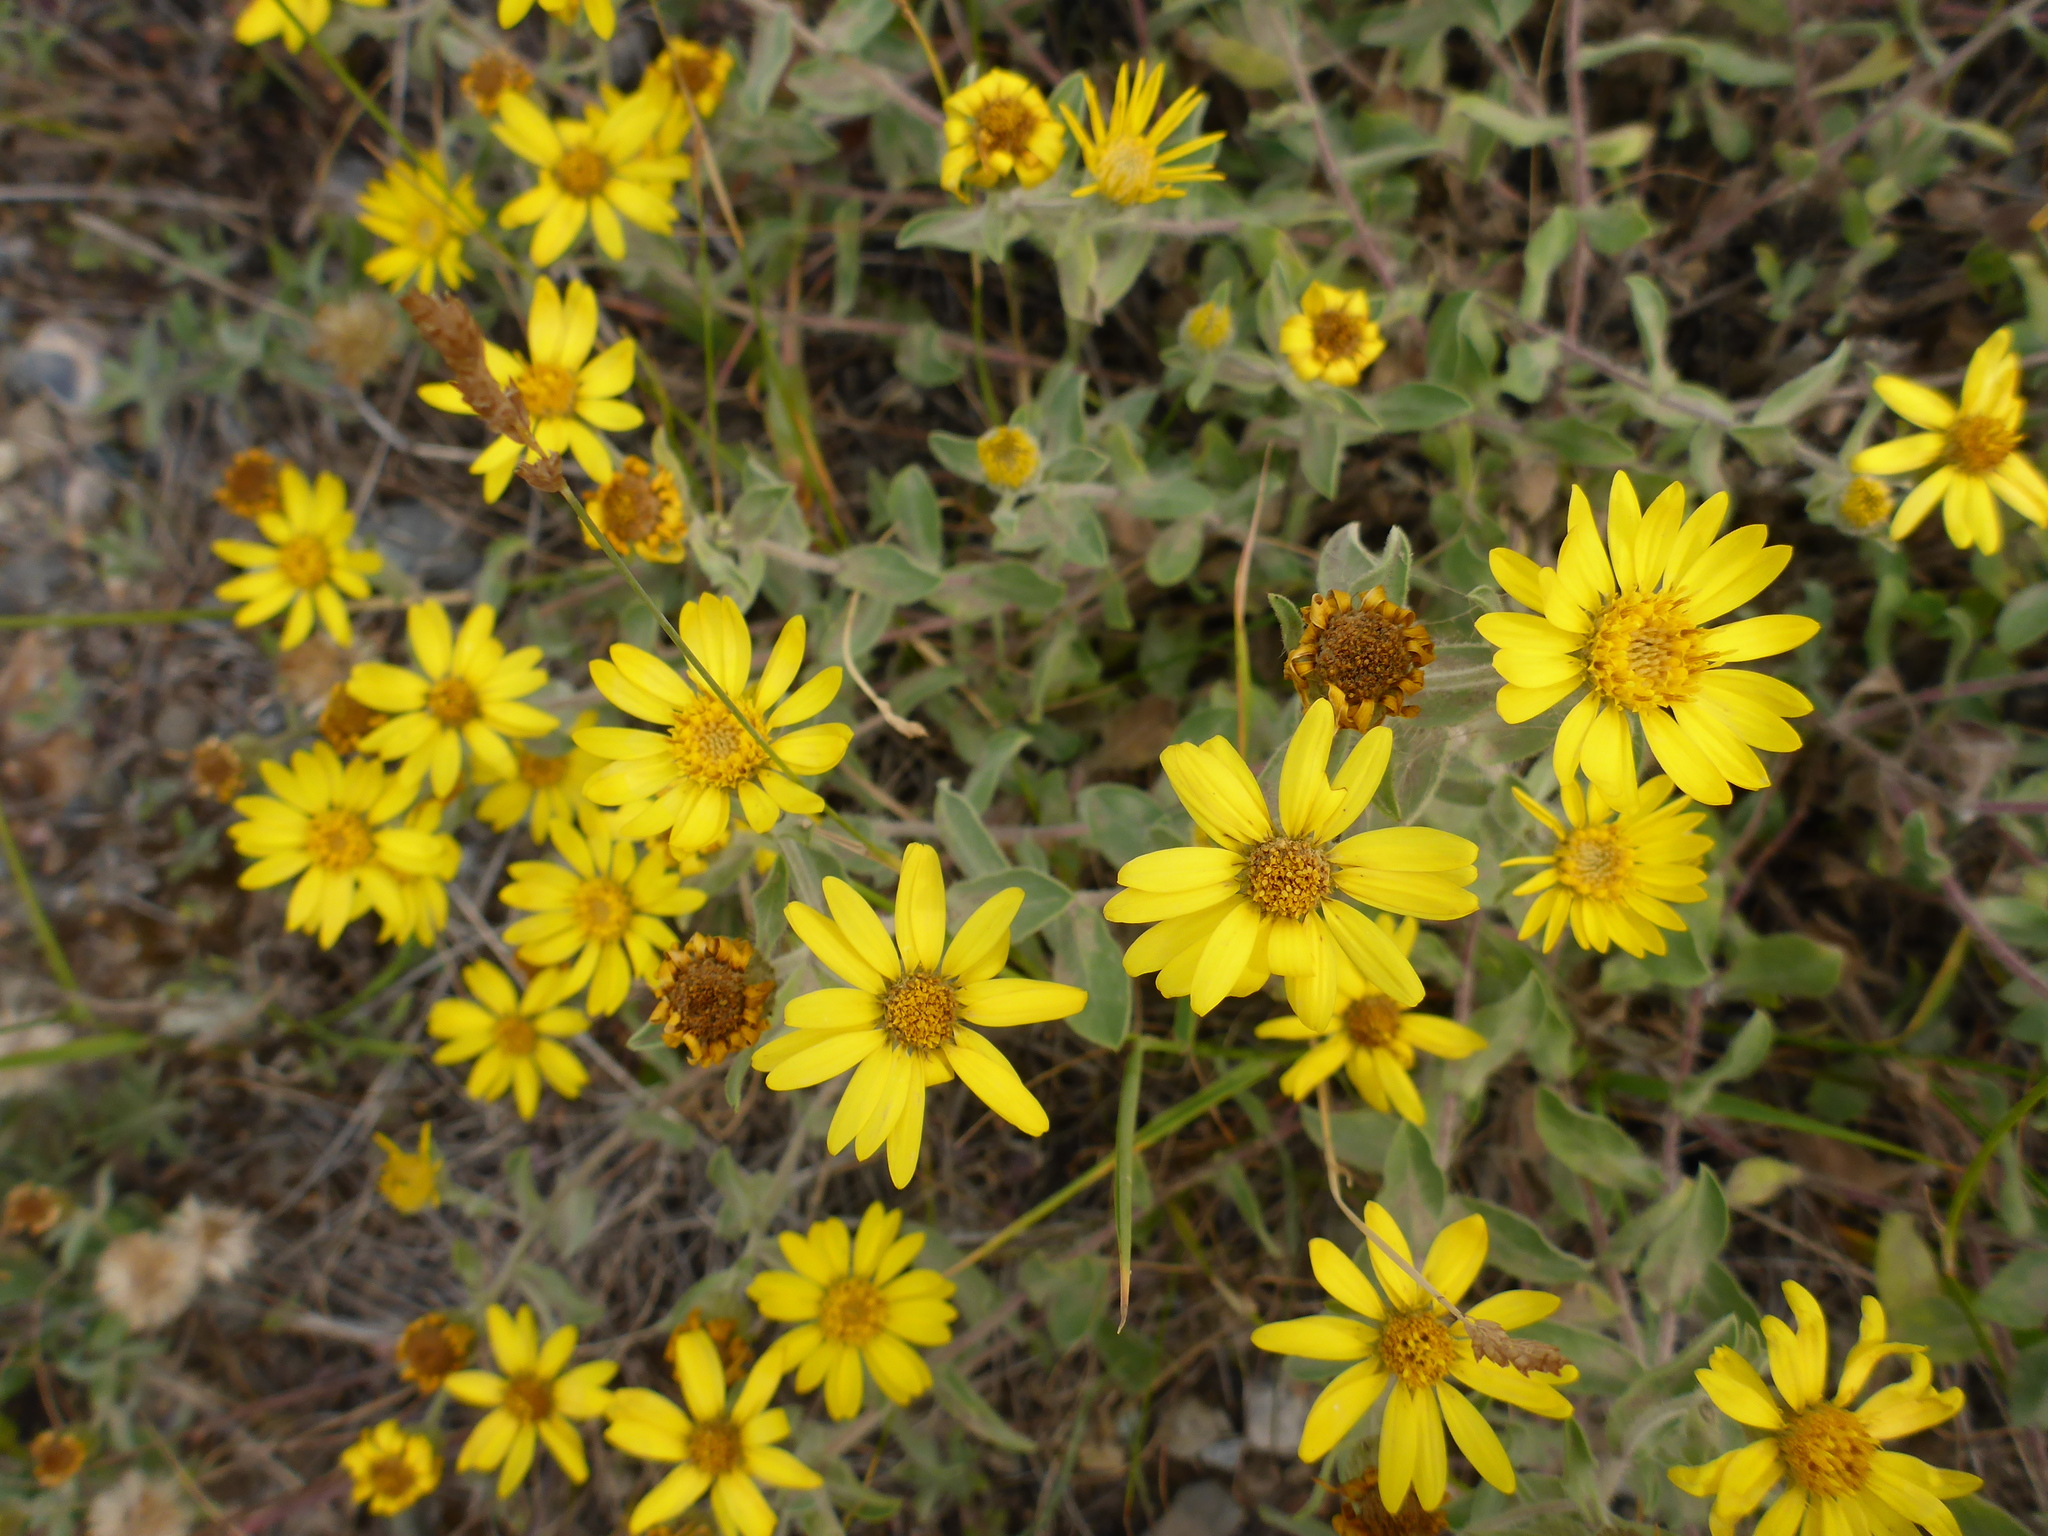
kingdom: Plantae
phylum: Tracheophyta
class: Magnoliopsida
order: Asterales
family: Asteraceae
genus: Heterotheca
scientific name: Heterotheca villosa
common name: Hairy false goldenaster
